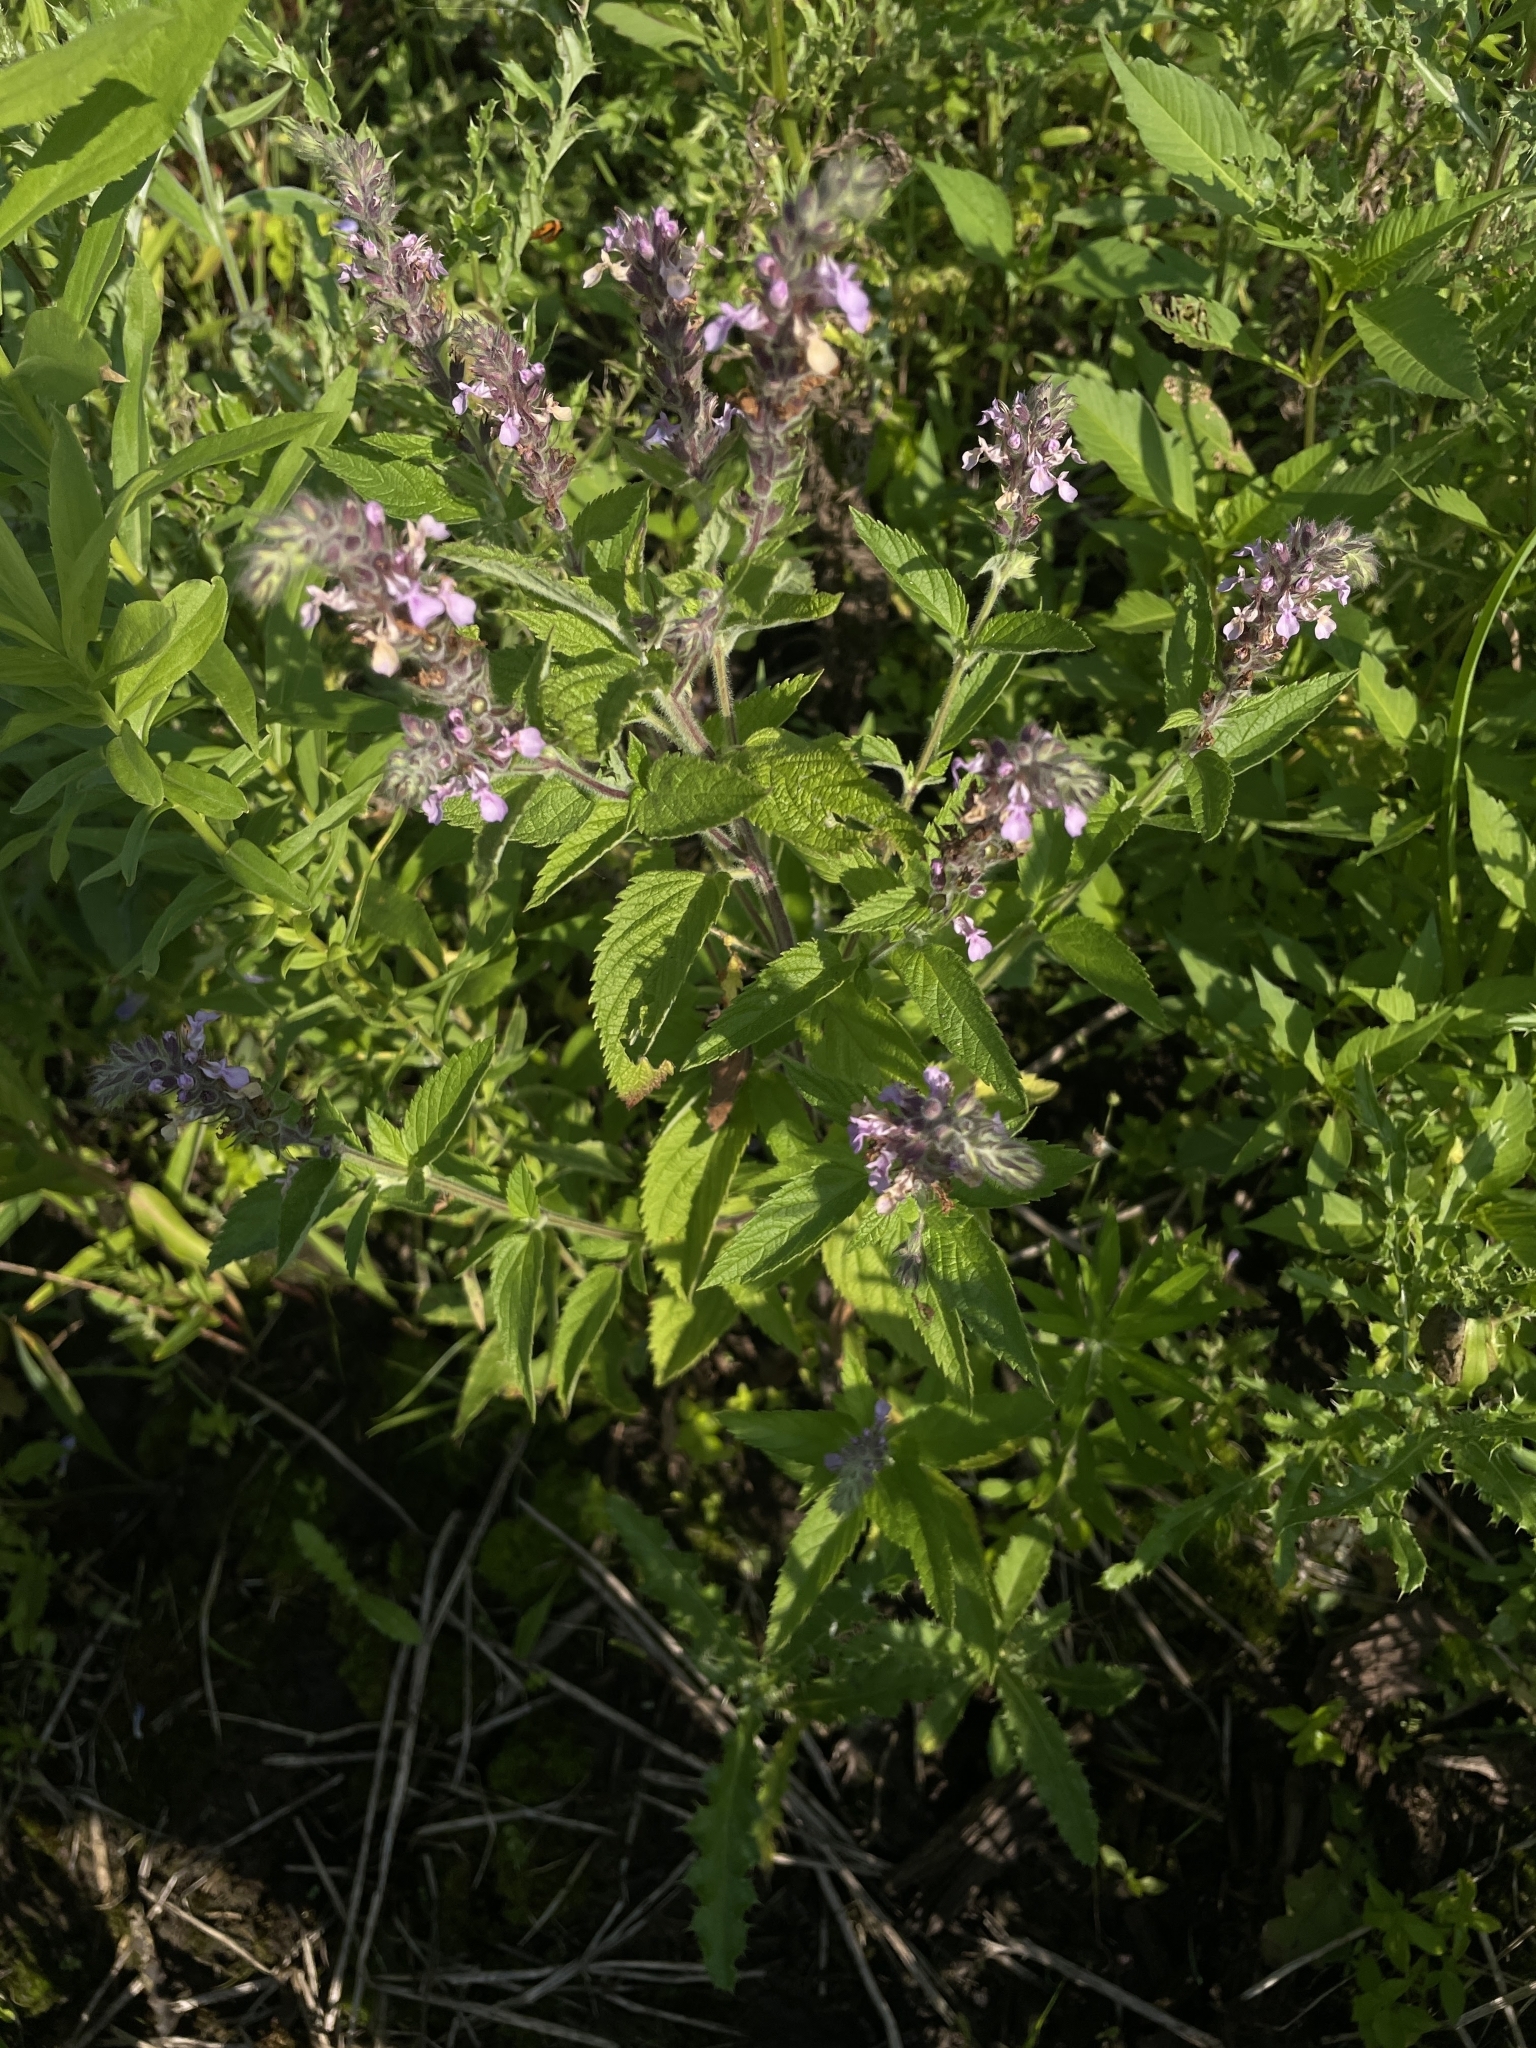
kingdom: Plantae
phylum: Tracheophyta
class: Magnoliopsida
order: Lamiales
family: Lamiaceae
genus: Teucrium
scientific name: Teucrium canadense
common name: American germander
